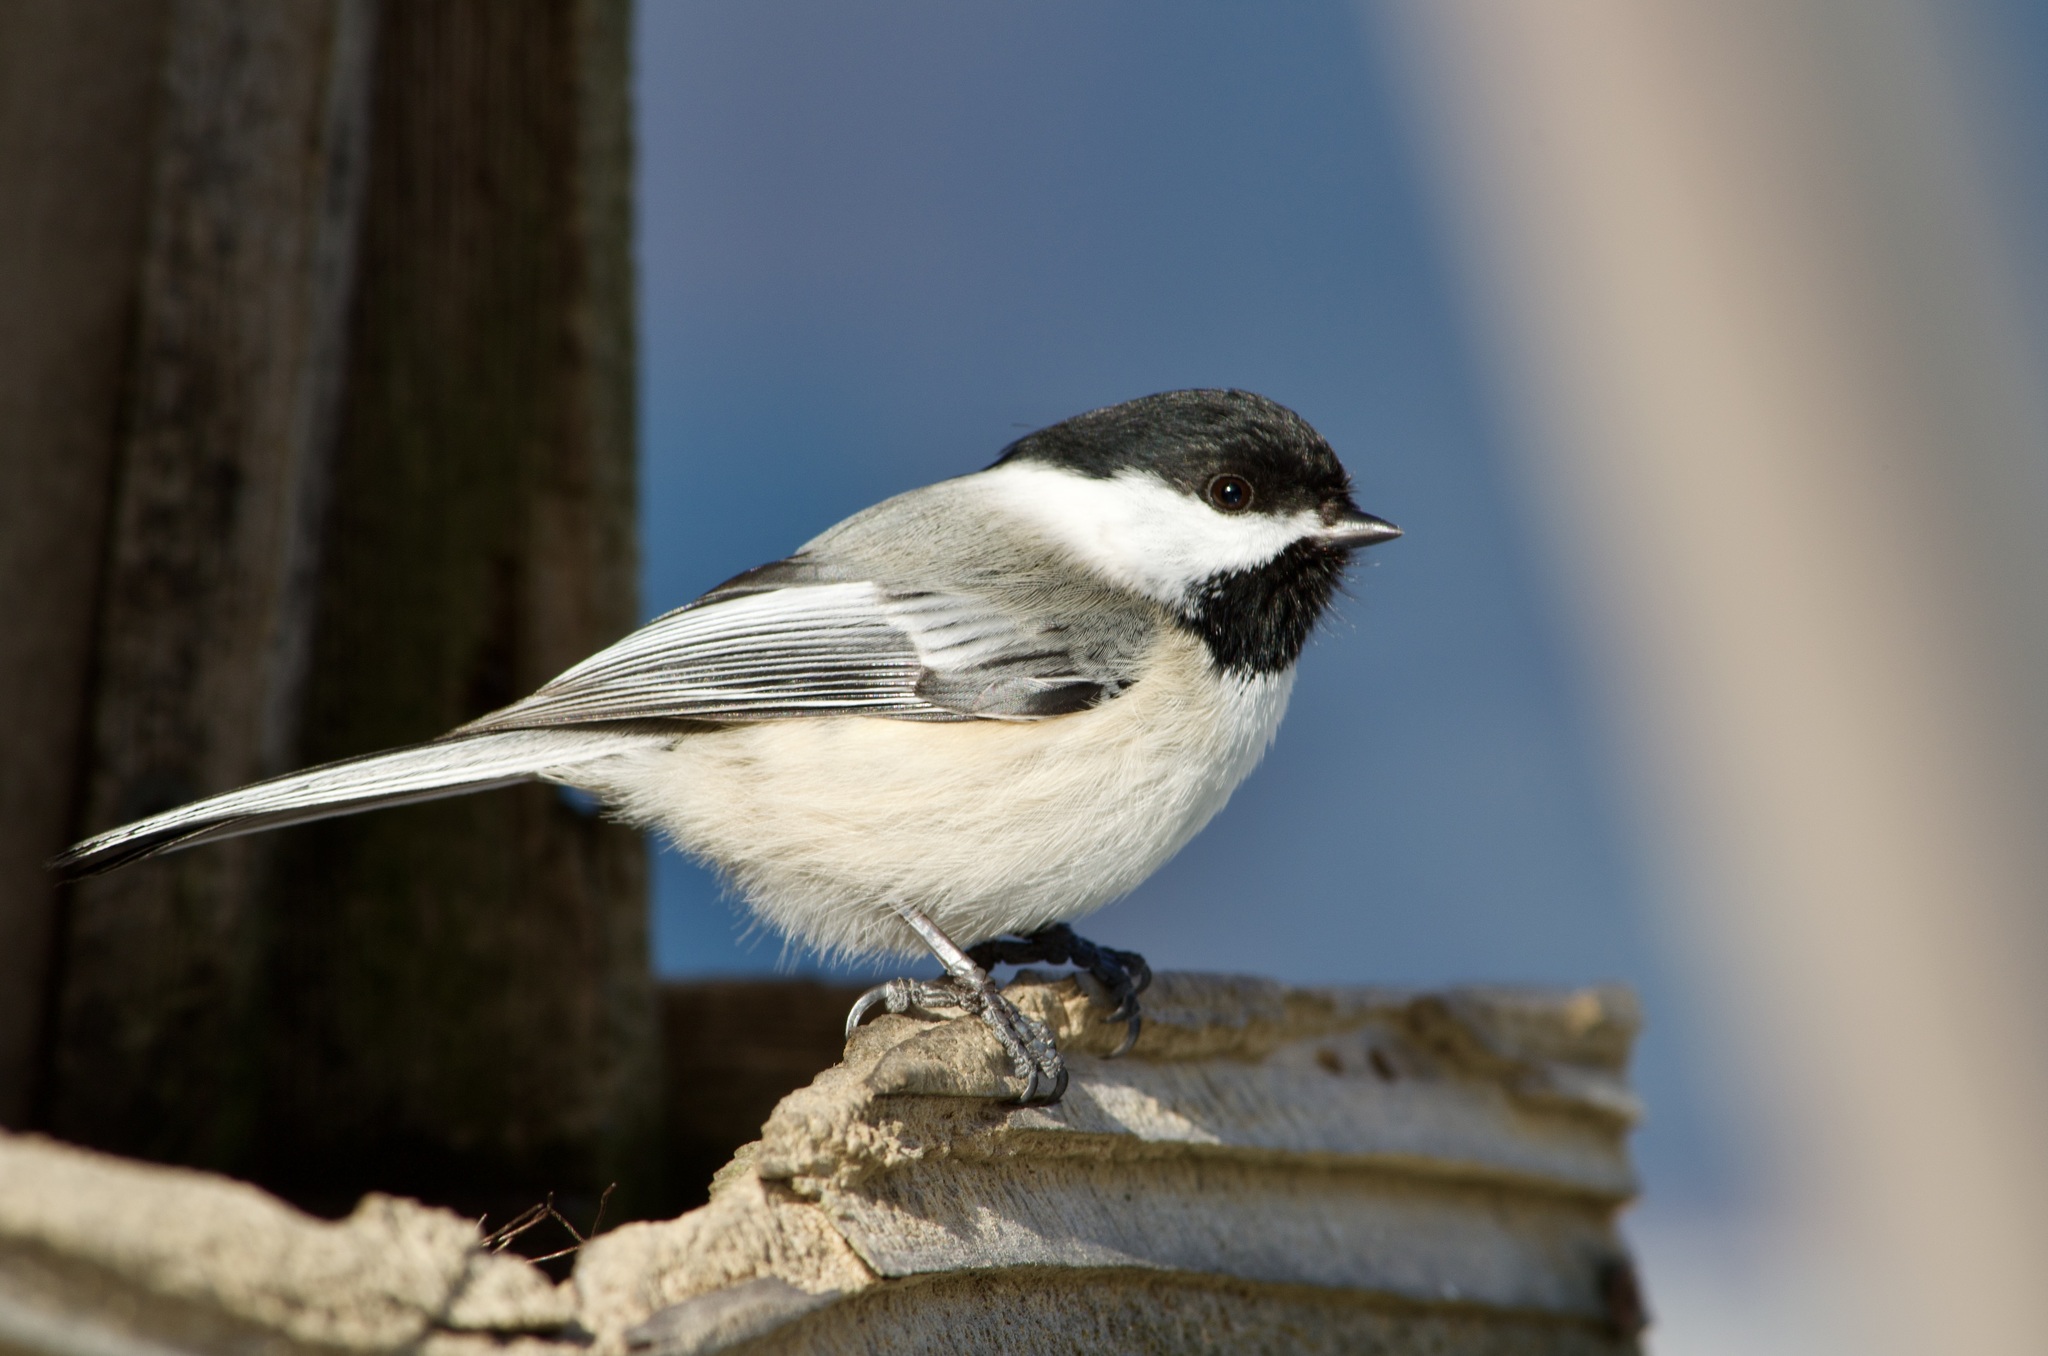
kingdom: Animalia
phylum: Chordata
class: Aves
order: Passeriformes
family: Paridae
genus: Poecile
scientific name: Poecile atricapillus
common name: Black-capped chickadee
